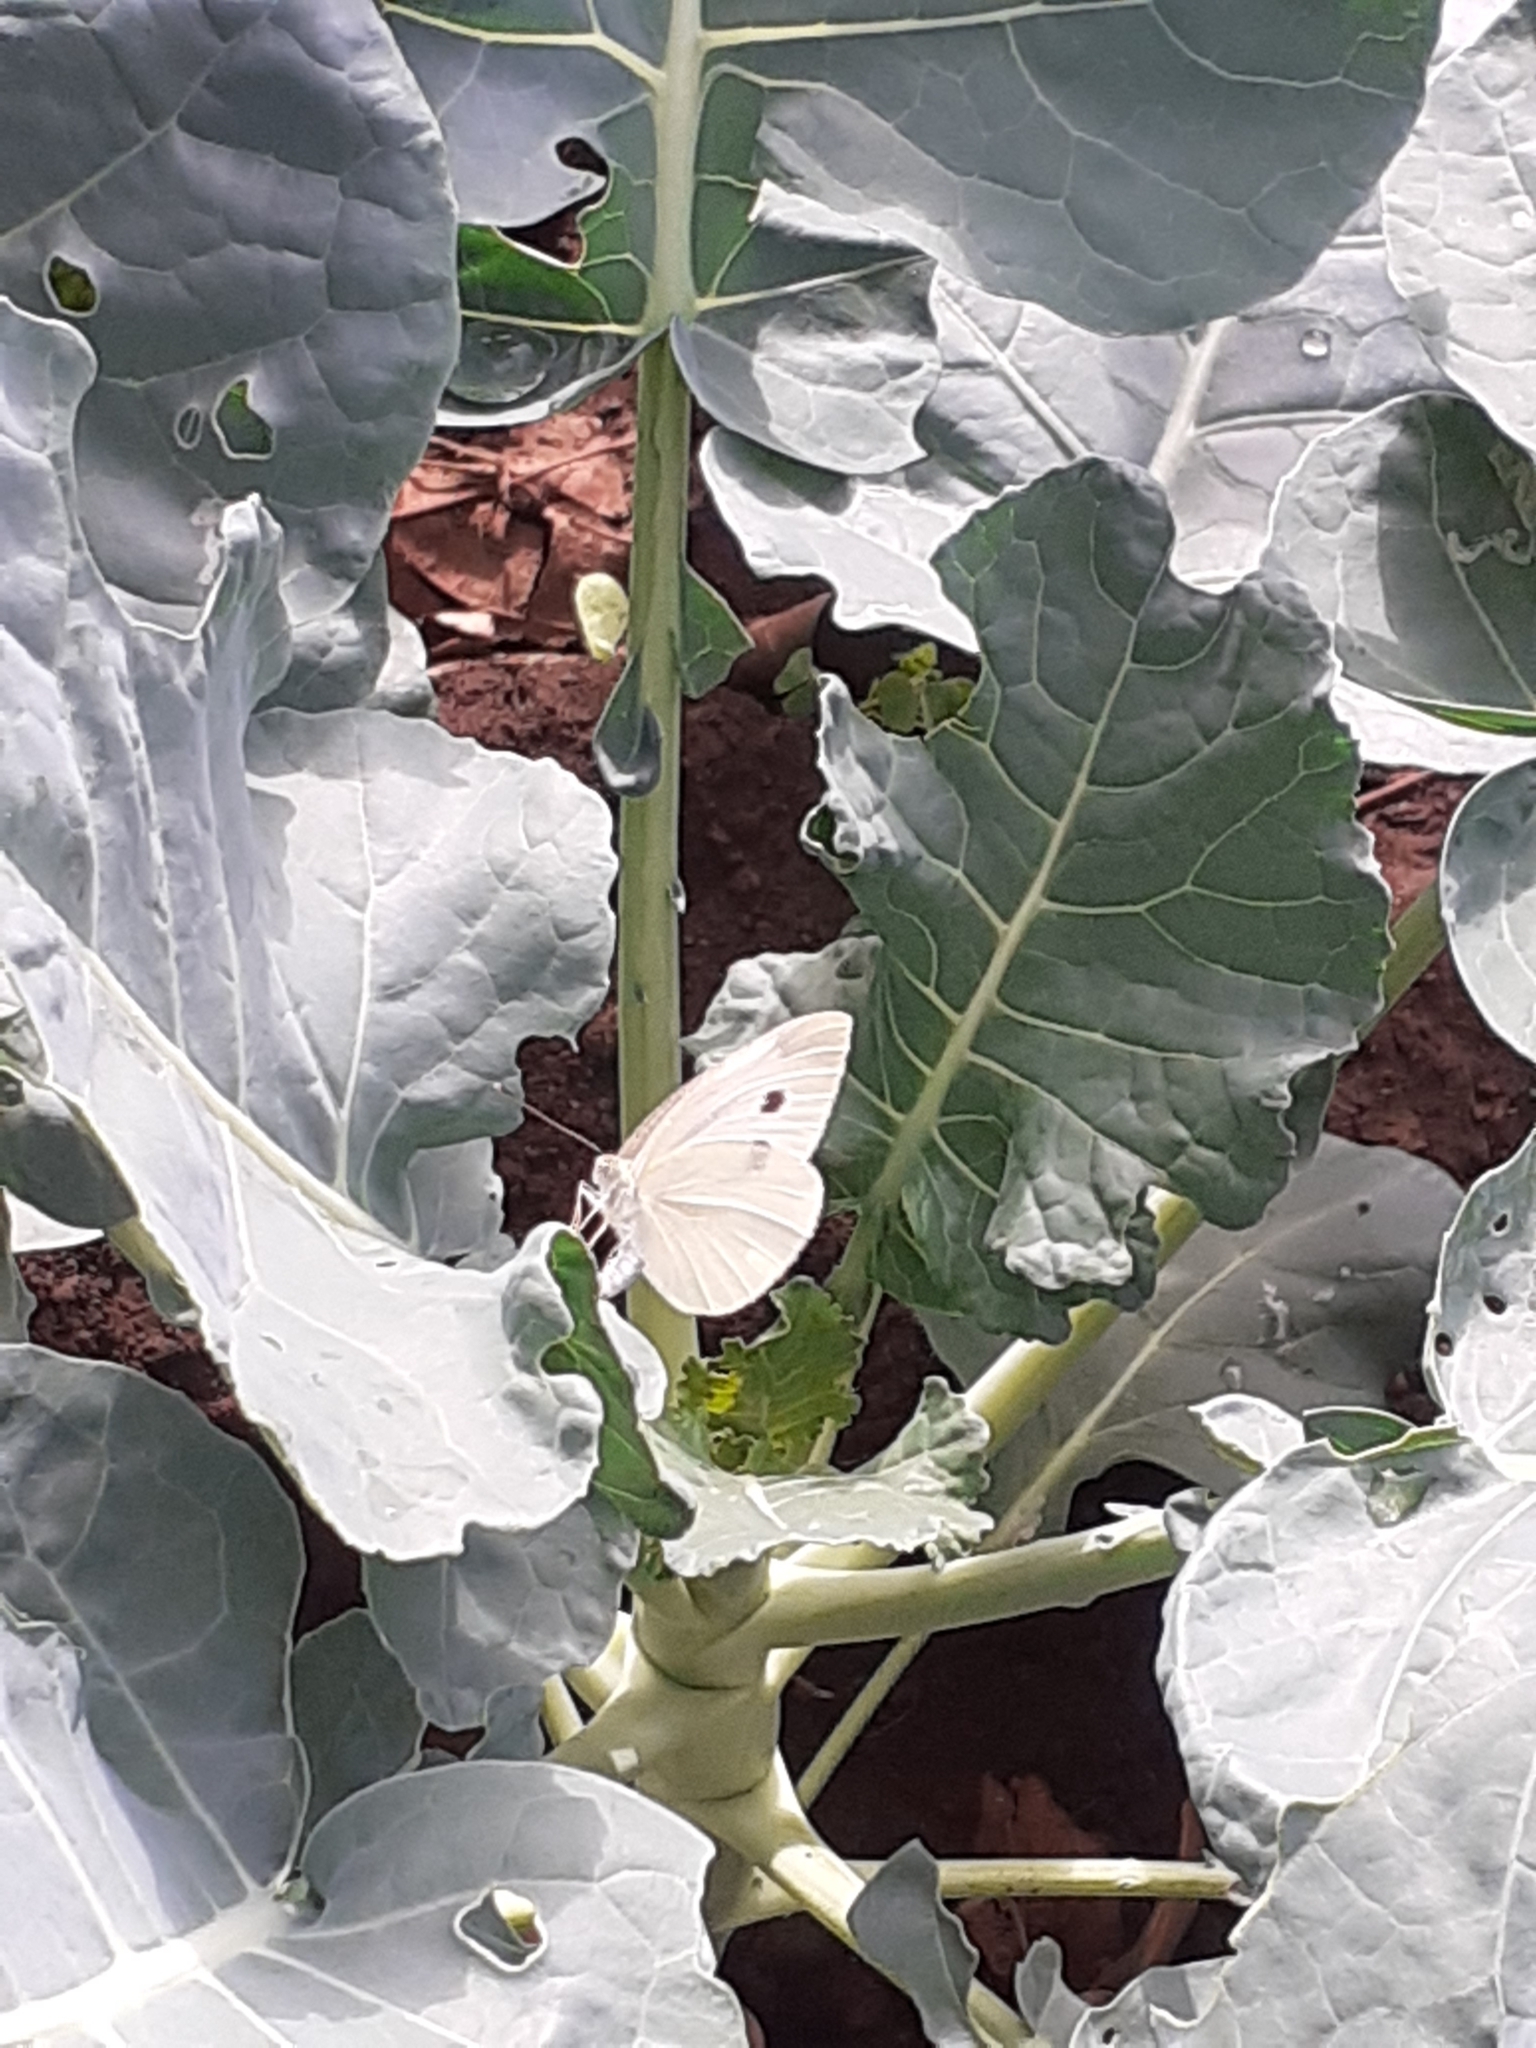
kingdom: Animalia
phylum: Arthropoda
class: Insecta
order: Lepidoptera
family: Pieridae
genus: Pieris
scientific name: Pieris rapae
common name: Small white
